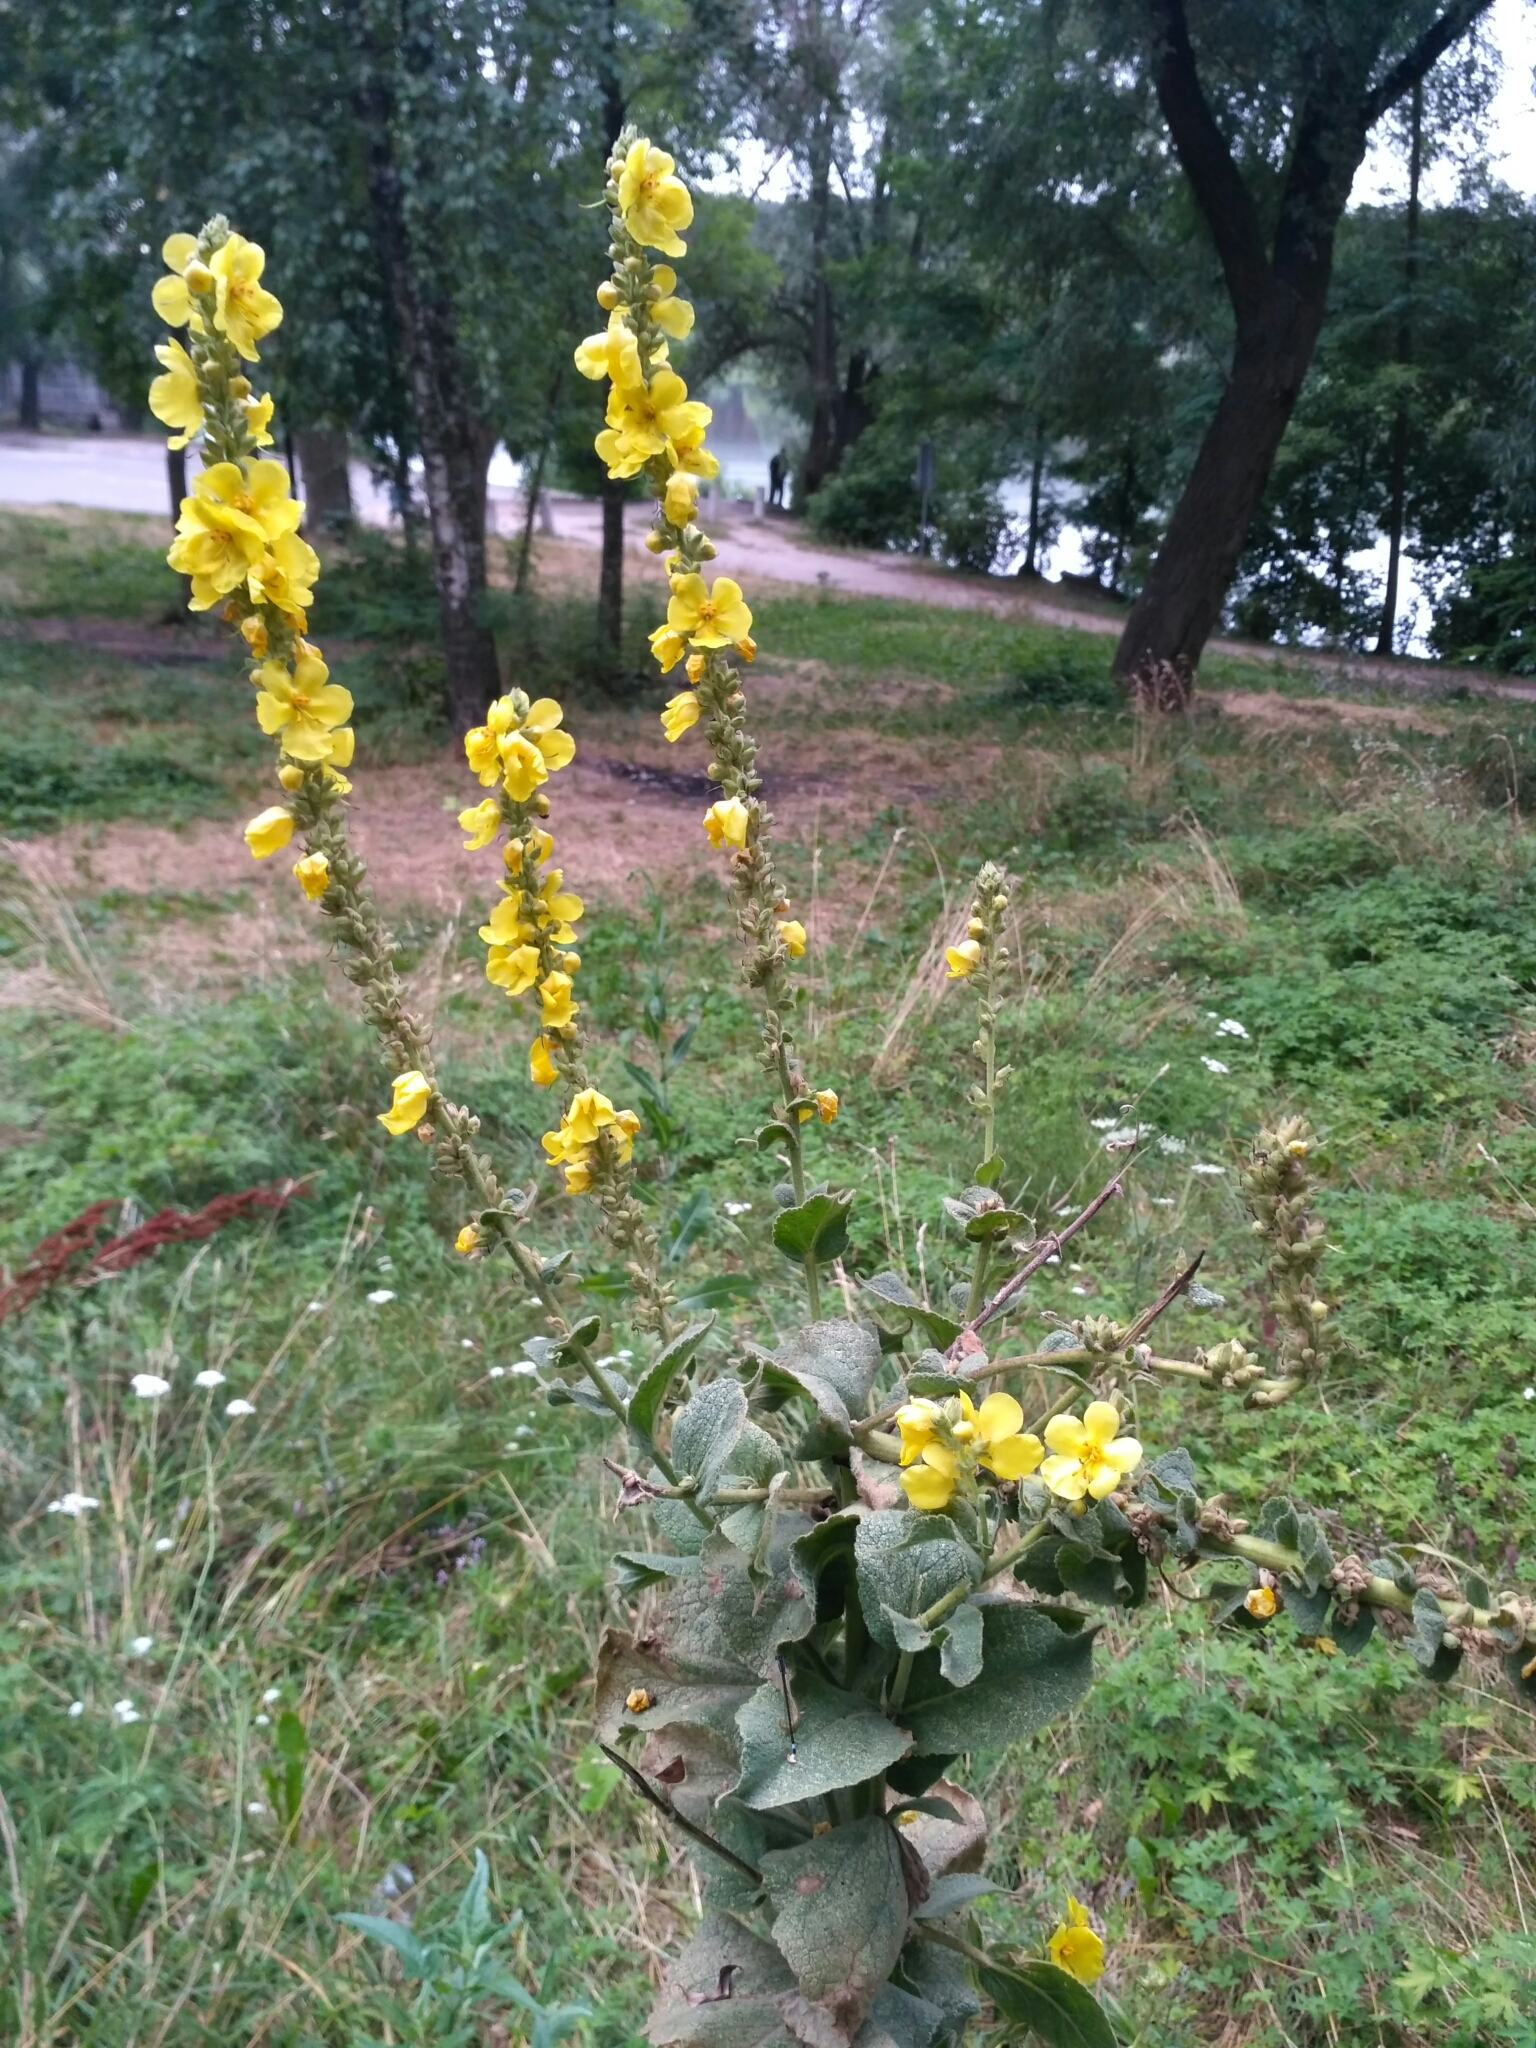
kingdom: Plantae
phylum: Tracheophyta
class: Magnoliopsida
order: Lamiales
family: Scrophulariaceae
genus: Verbascum
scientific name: Verbascum phlomoides
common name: Orange mullein
